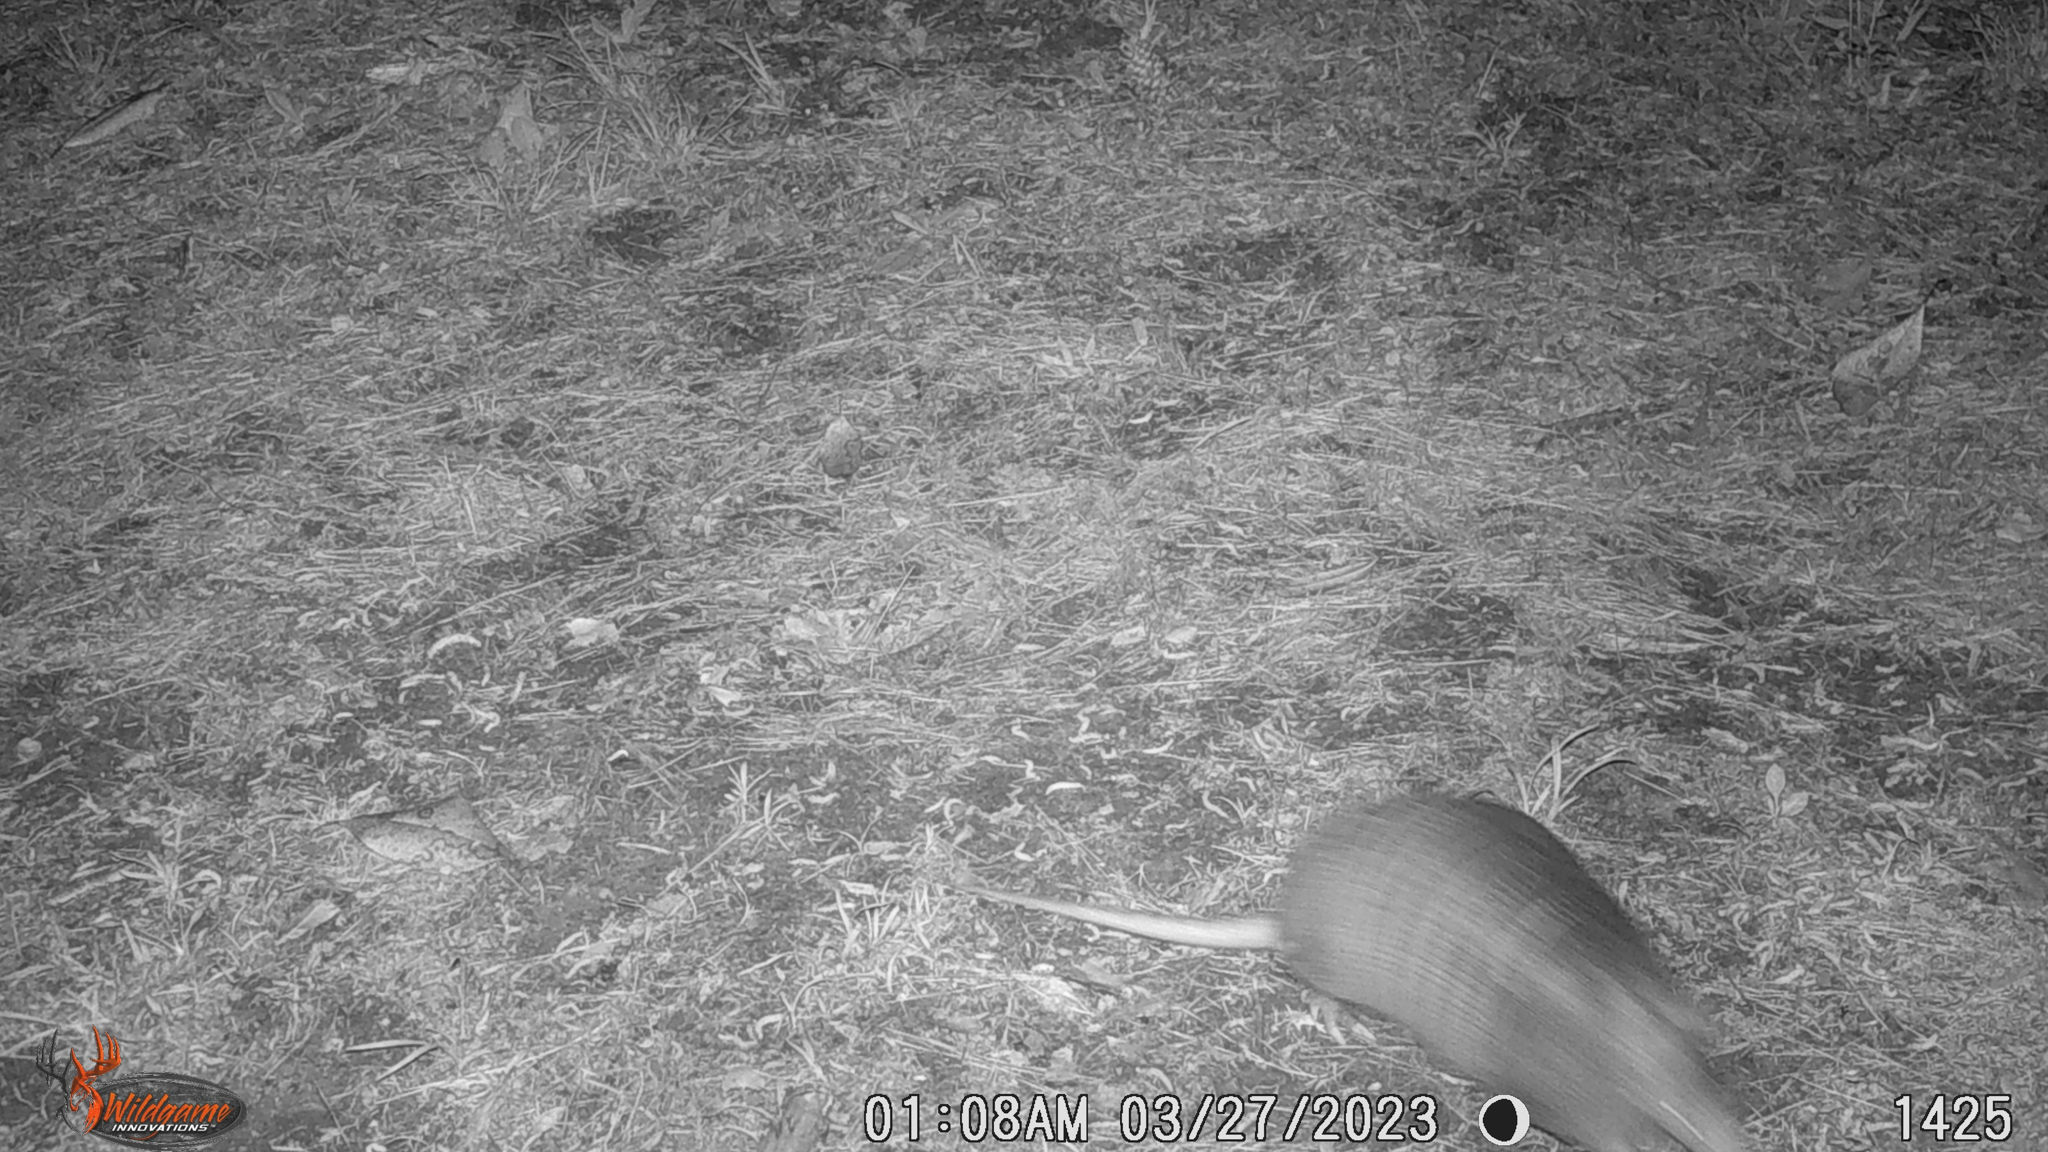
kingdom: Animalia
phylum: Chordata
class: Mammalia
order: Cingulata
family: Dasypodidae
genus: Dasypus
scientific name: Dasypus novemcinctus
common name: Nine-banded armadillo
